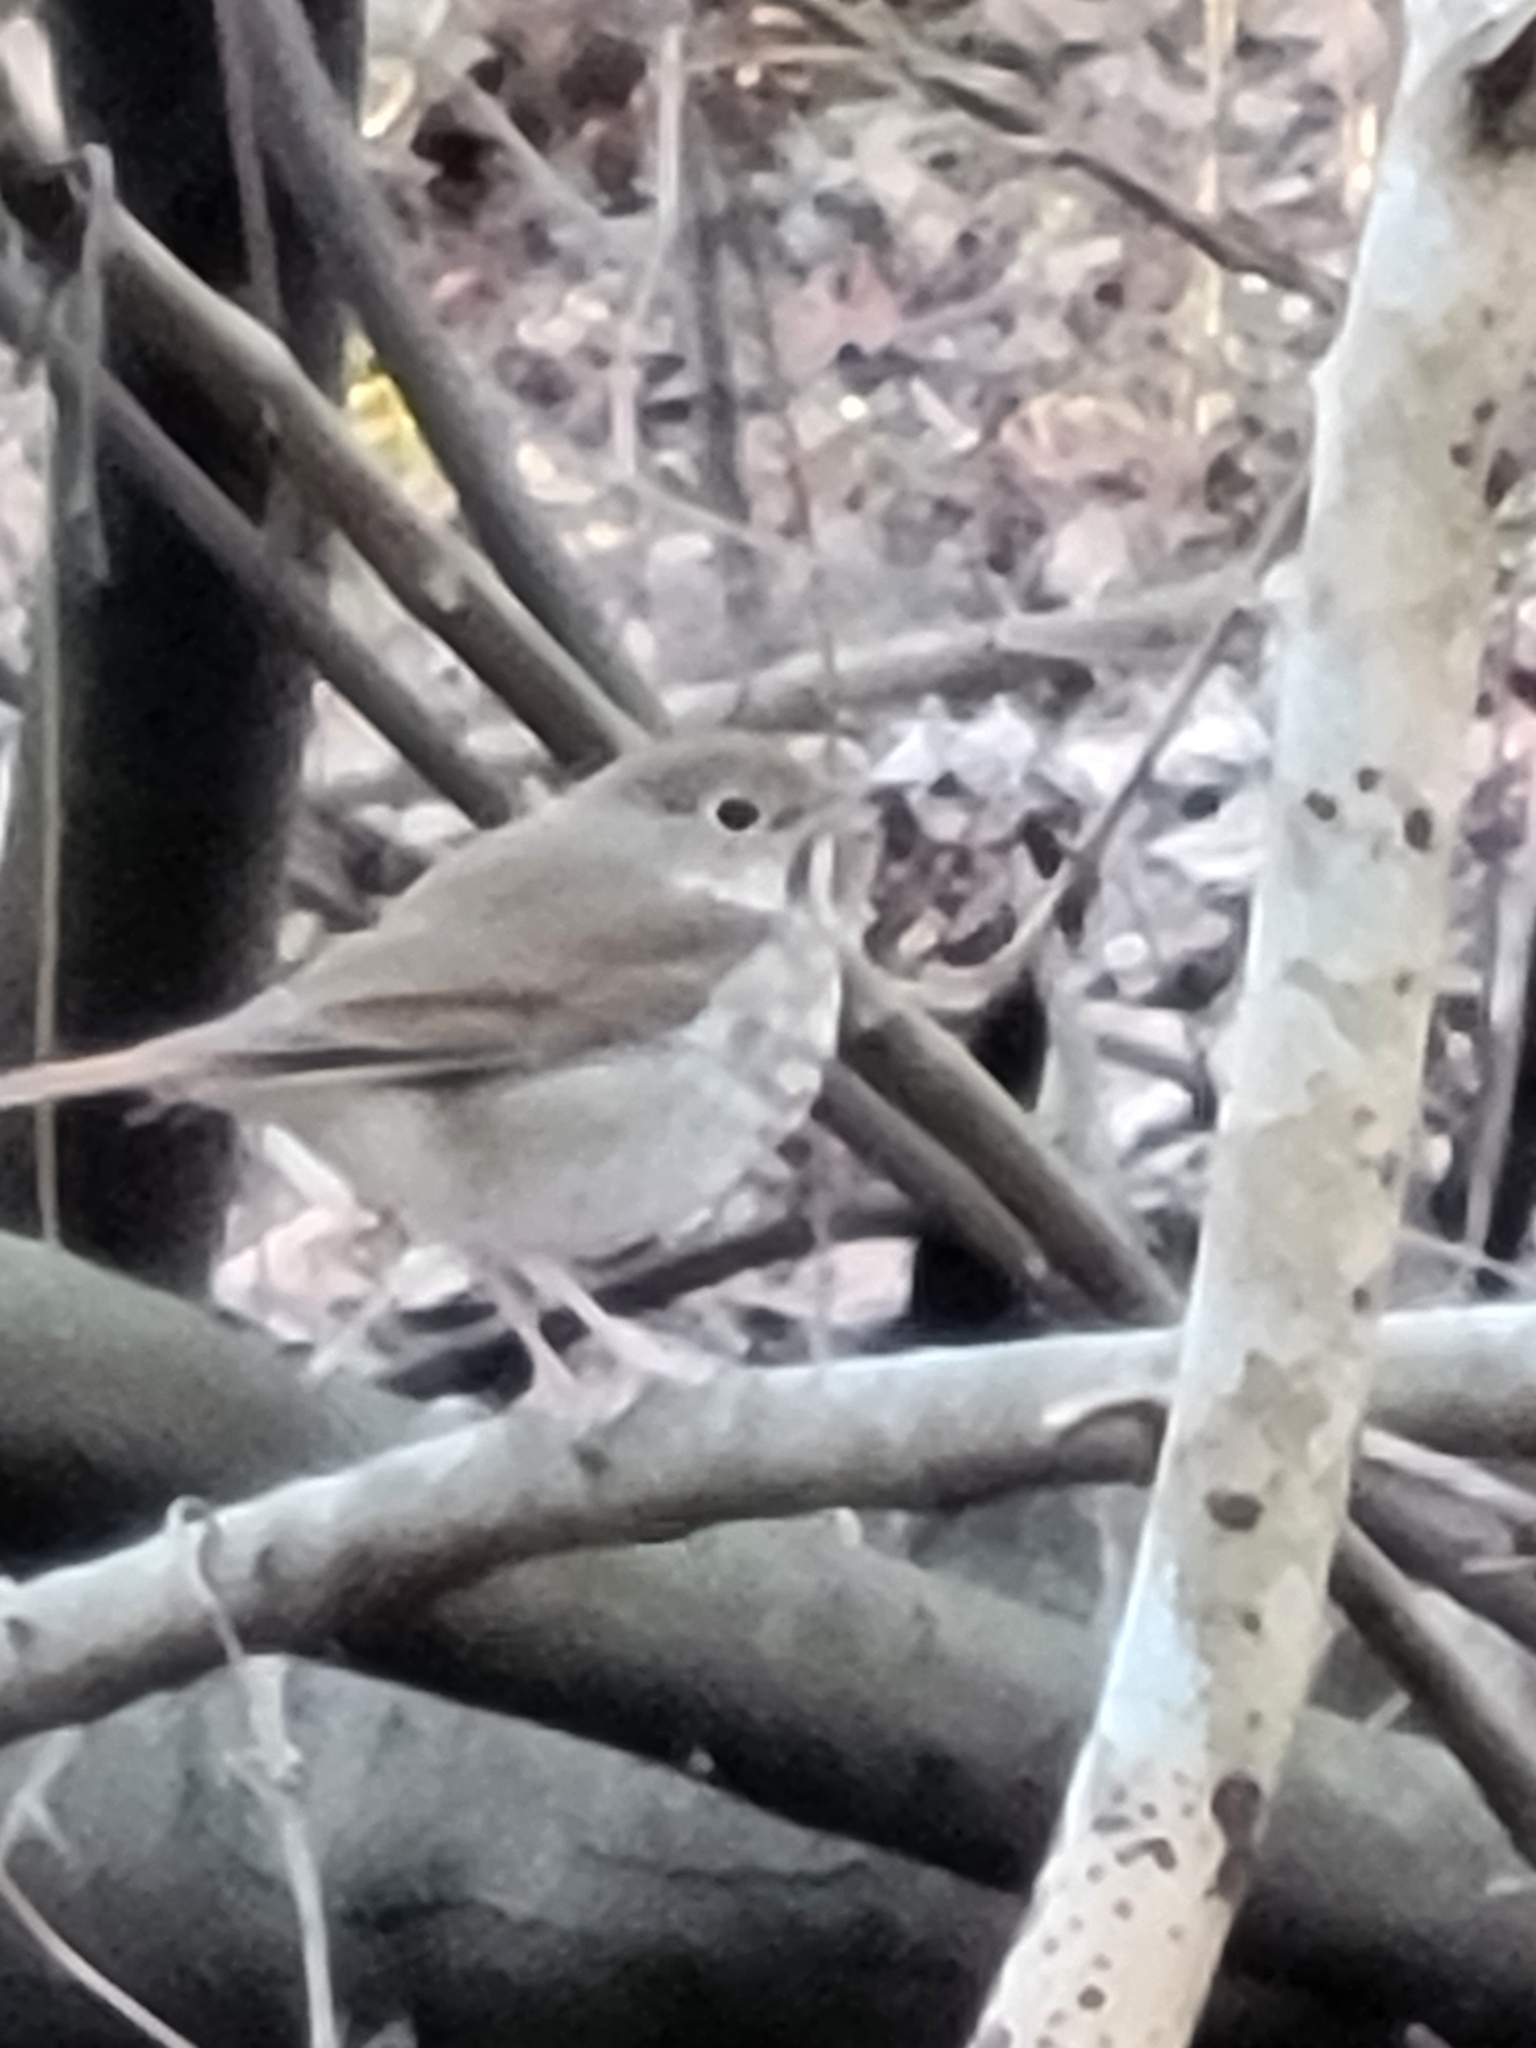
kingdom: Animalia
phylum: Chordata
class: Aves
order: Passeriformes
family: Turdidae
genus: Catharus
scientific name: Catharus guttatus
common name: Hermit thrush
